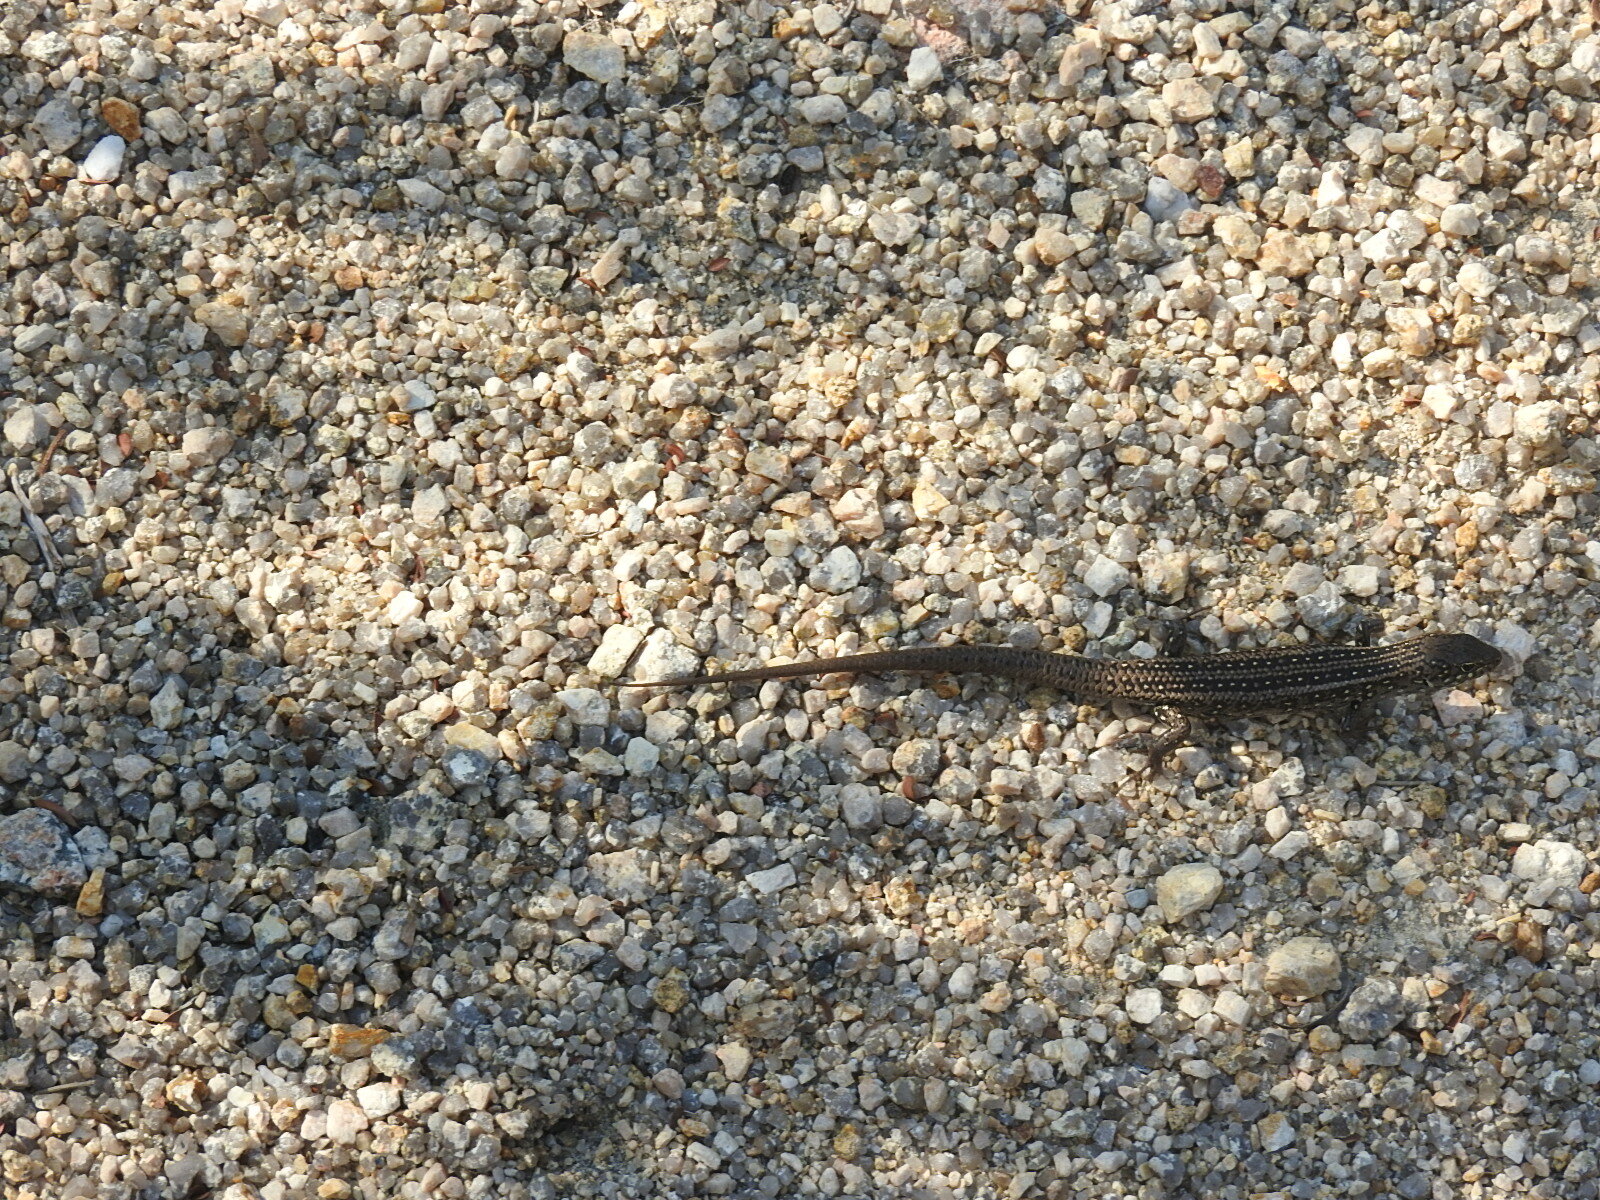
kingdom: Animalia
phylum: Chordata
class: Squamata
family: Scincidae
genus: Liopholis
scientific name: Liopholis whitii
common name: White's rock-skink
